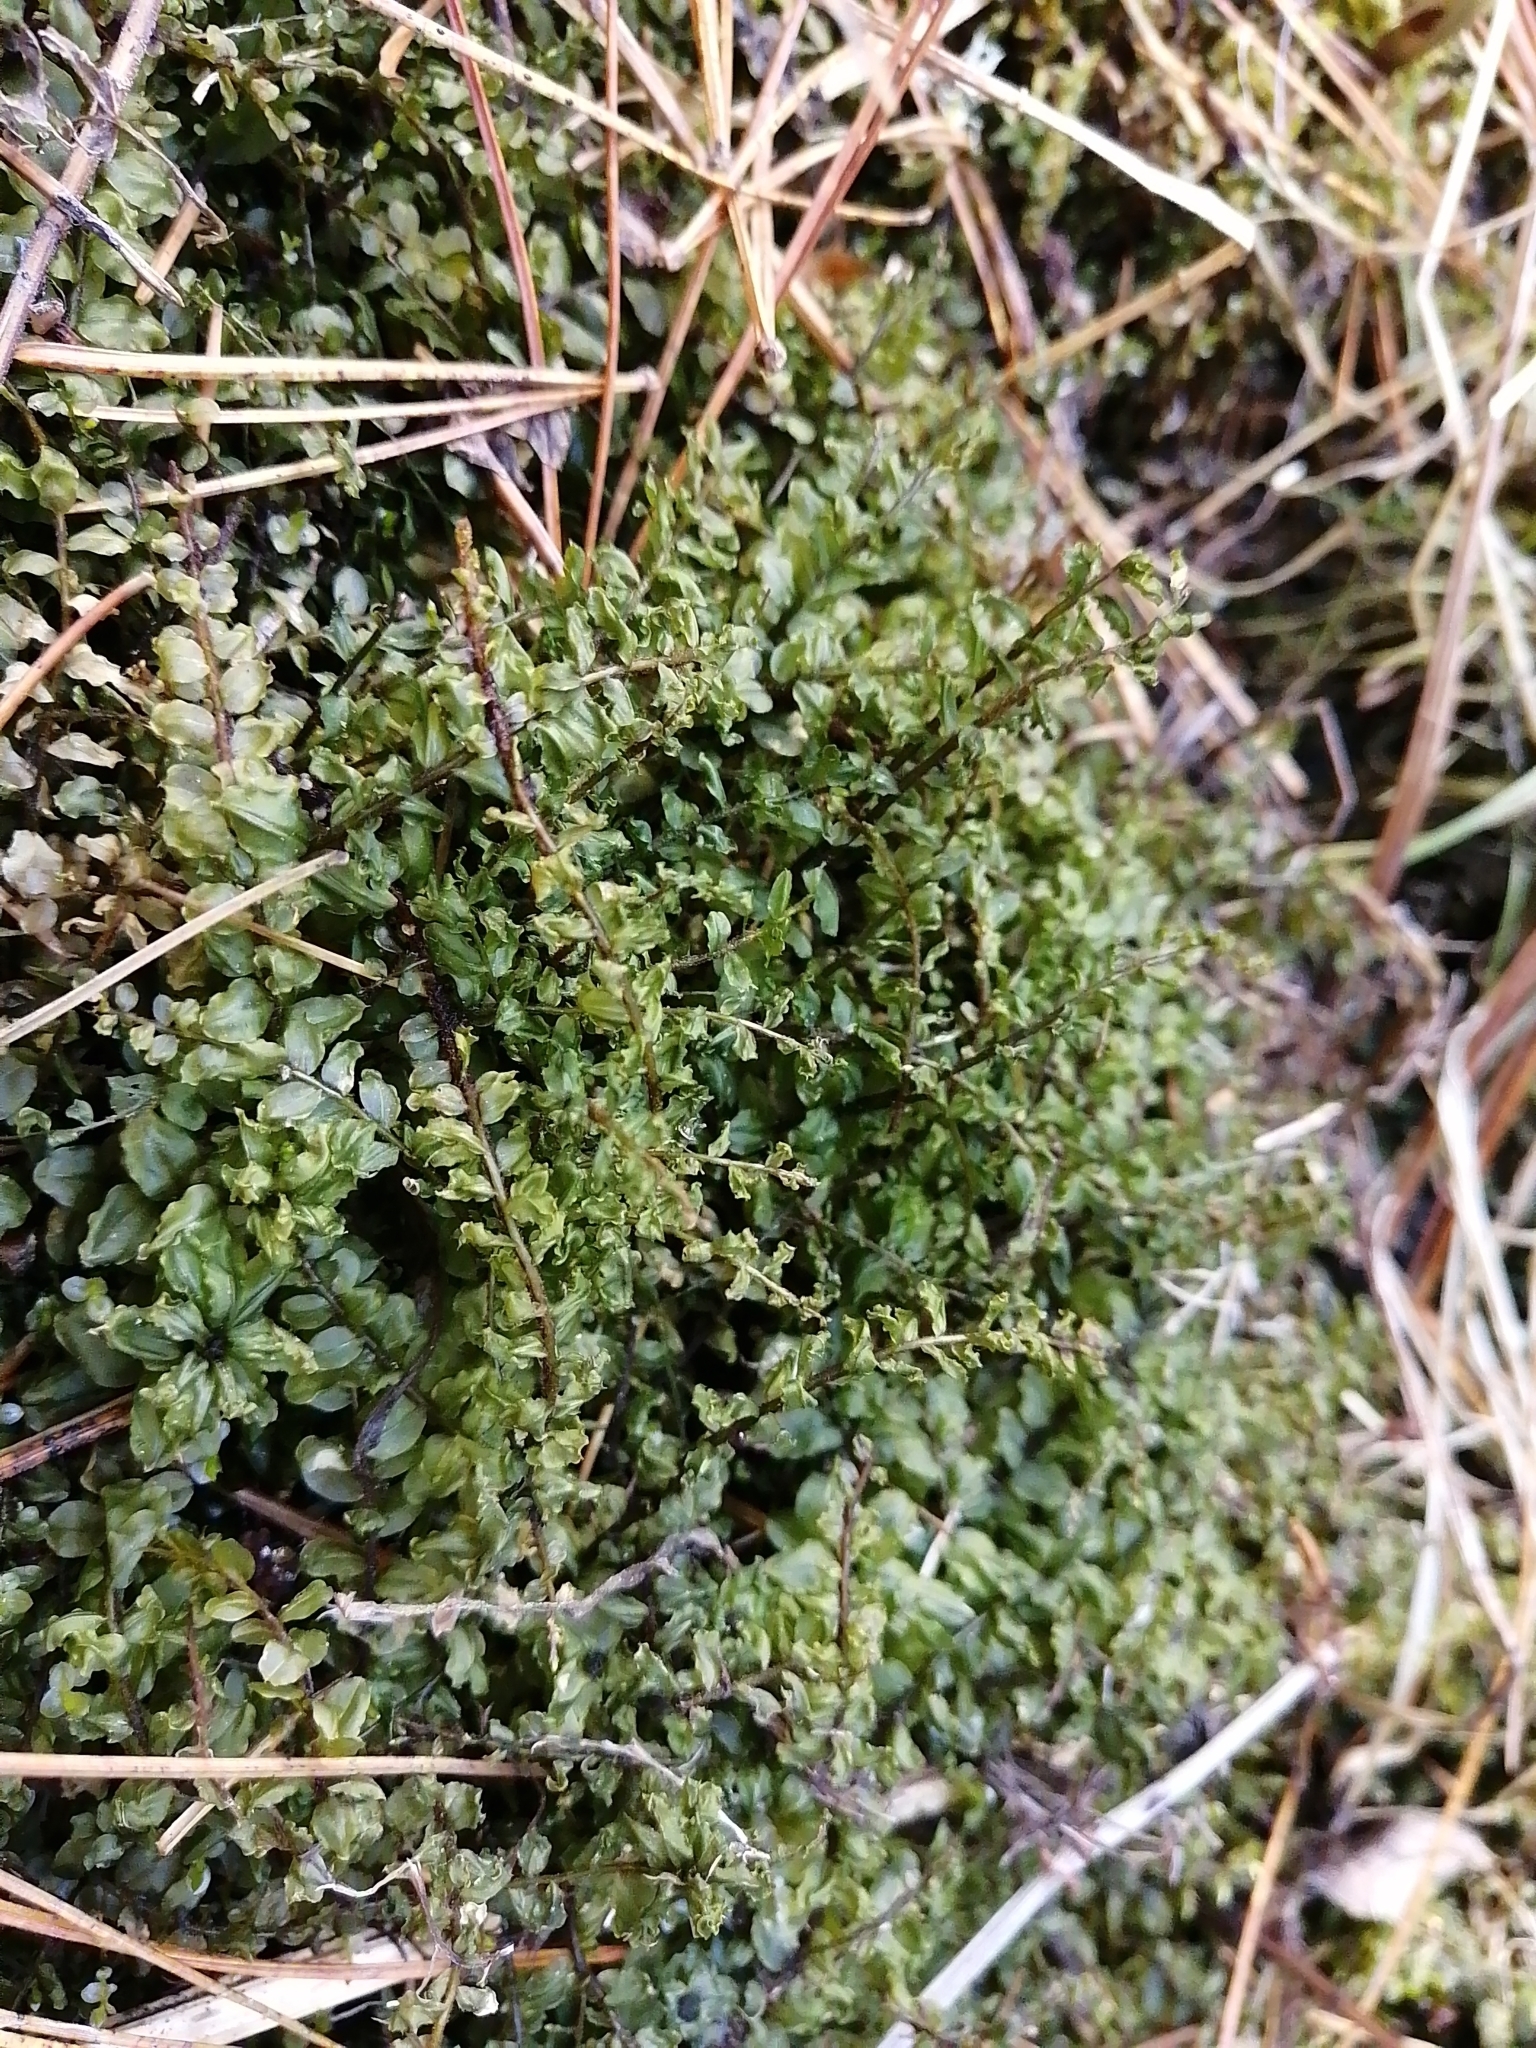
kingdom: Plantae
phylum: Bryophyta
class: Bryopsida
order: Bryales
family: Mniaceae
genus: Plagiomnium
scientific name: Plagiomnium affine
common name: Many-fruited thyme-moss
